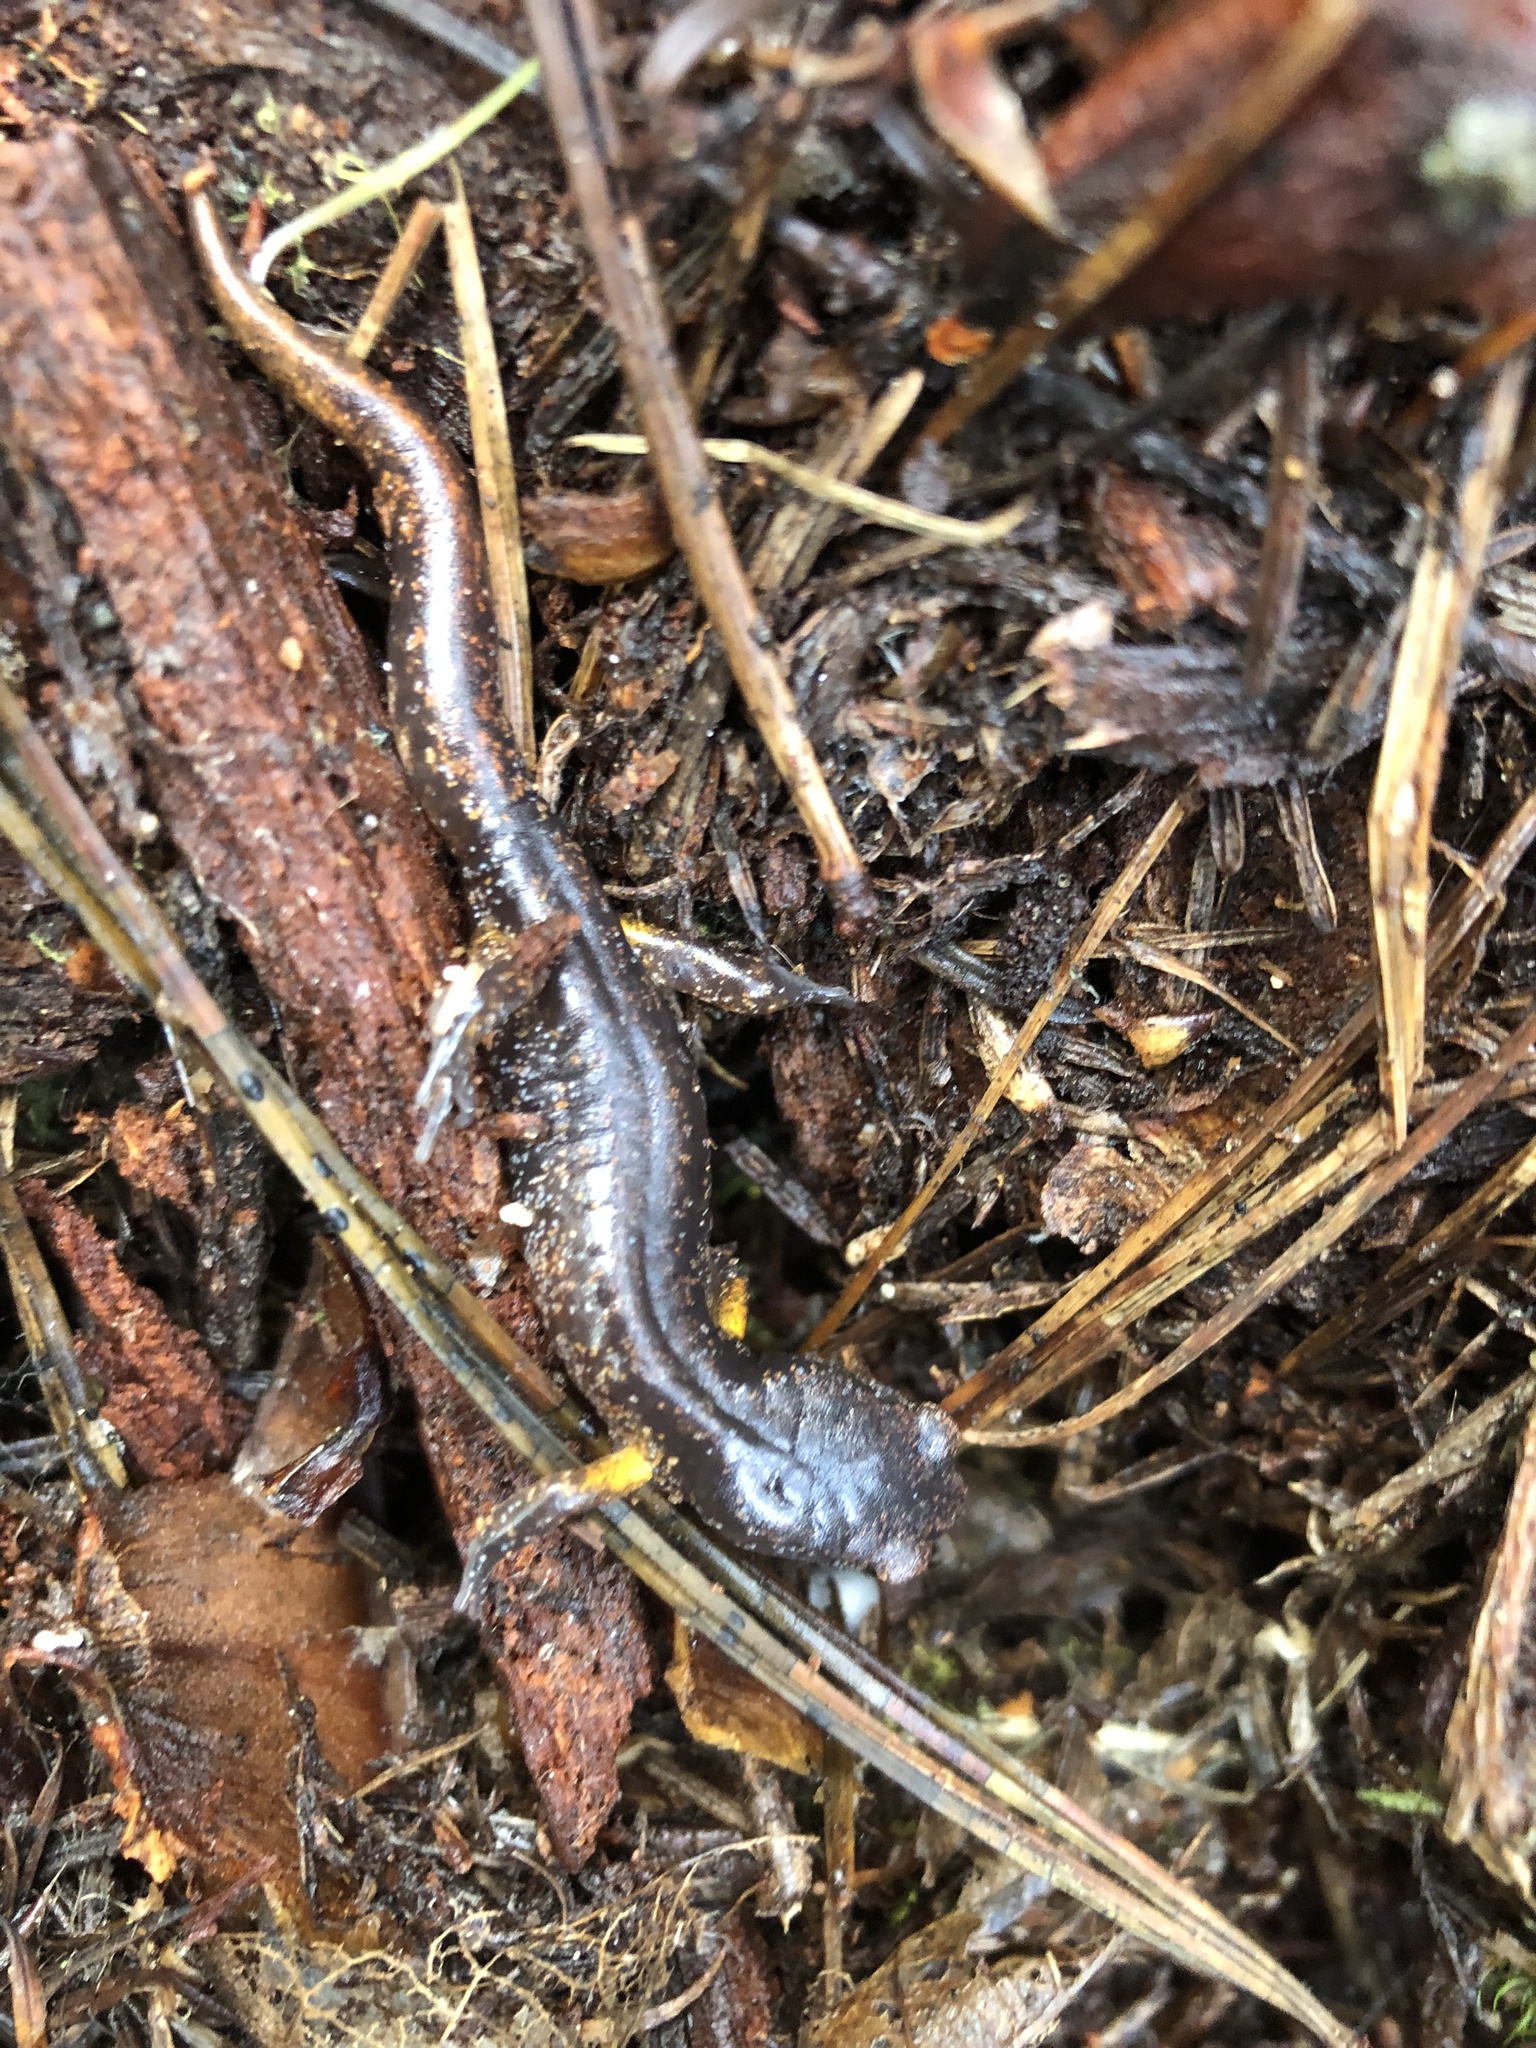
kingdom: Animalia
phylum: Chordata
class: Amphibia
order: Caudata
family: Plethodontidae
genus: Ensatina
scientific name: Ensatina eschscholtzii
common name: Ensatina
